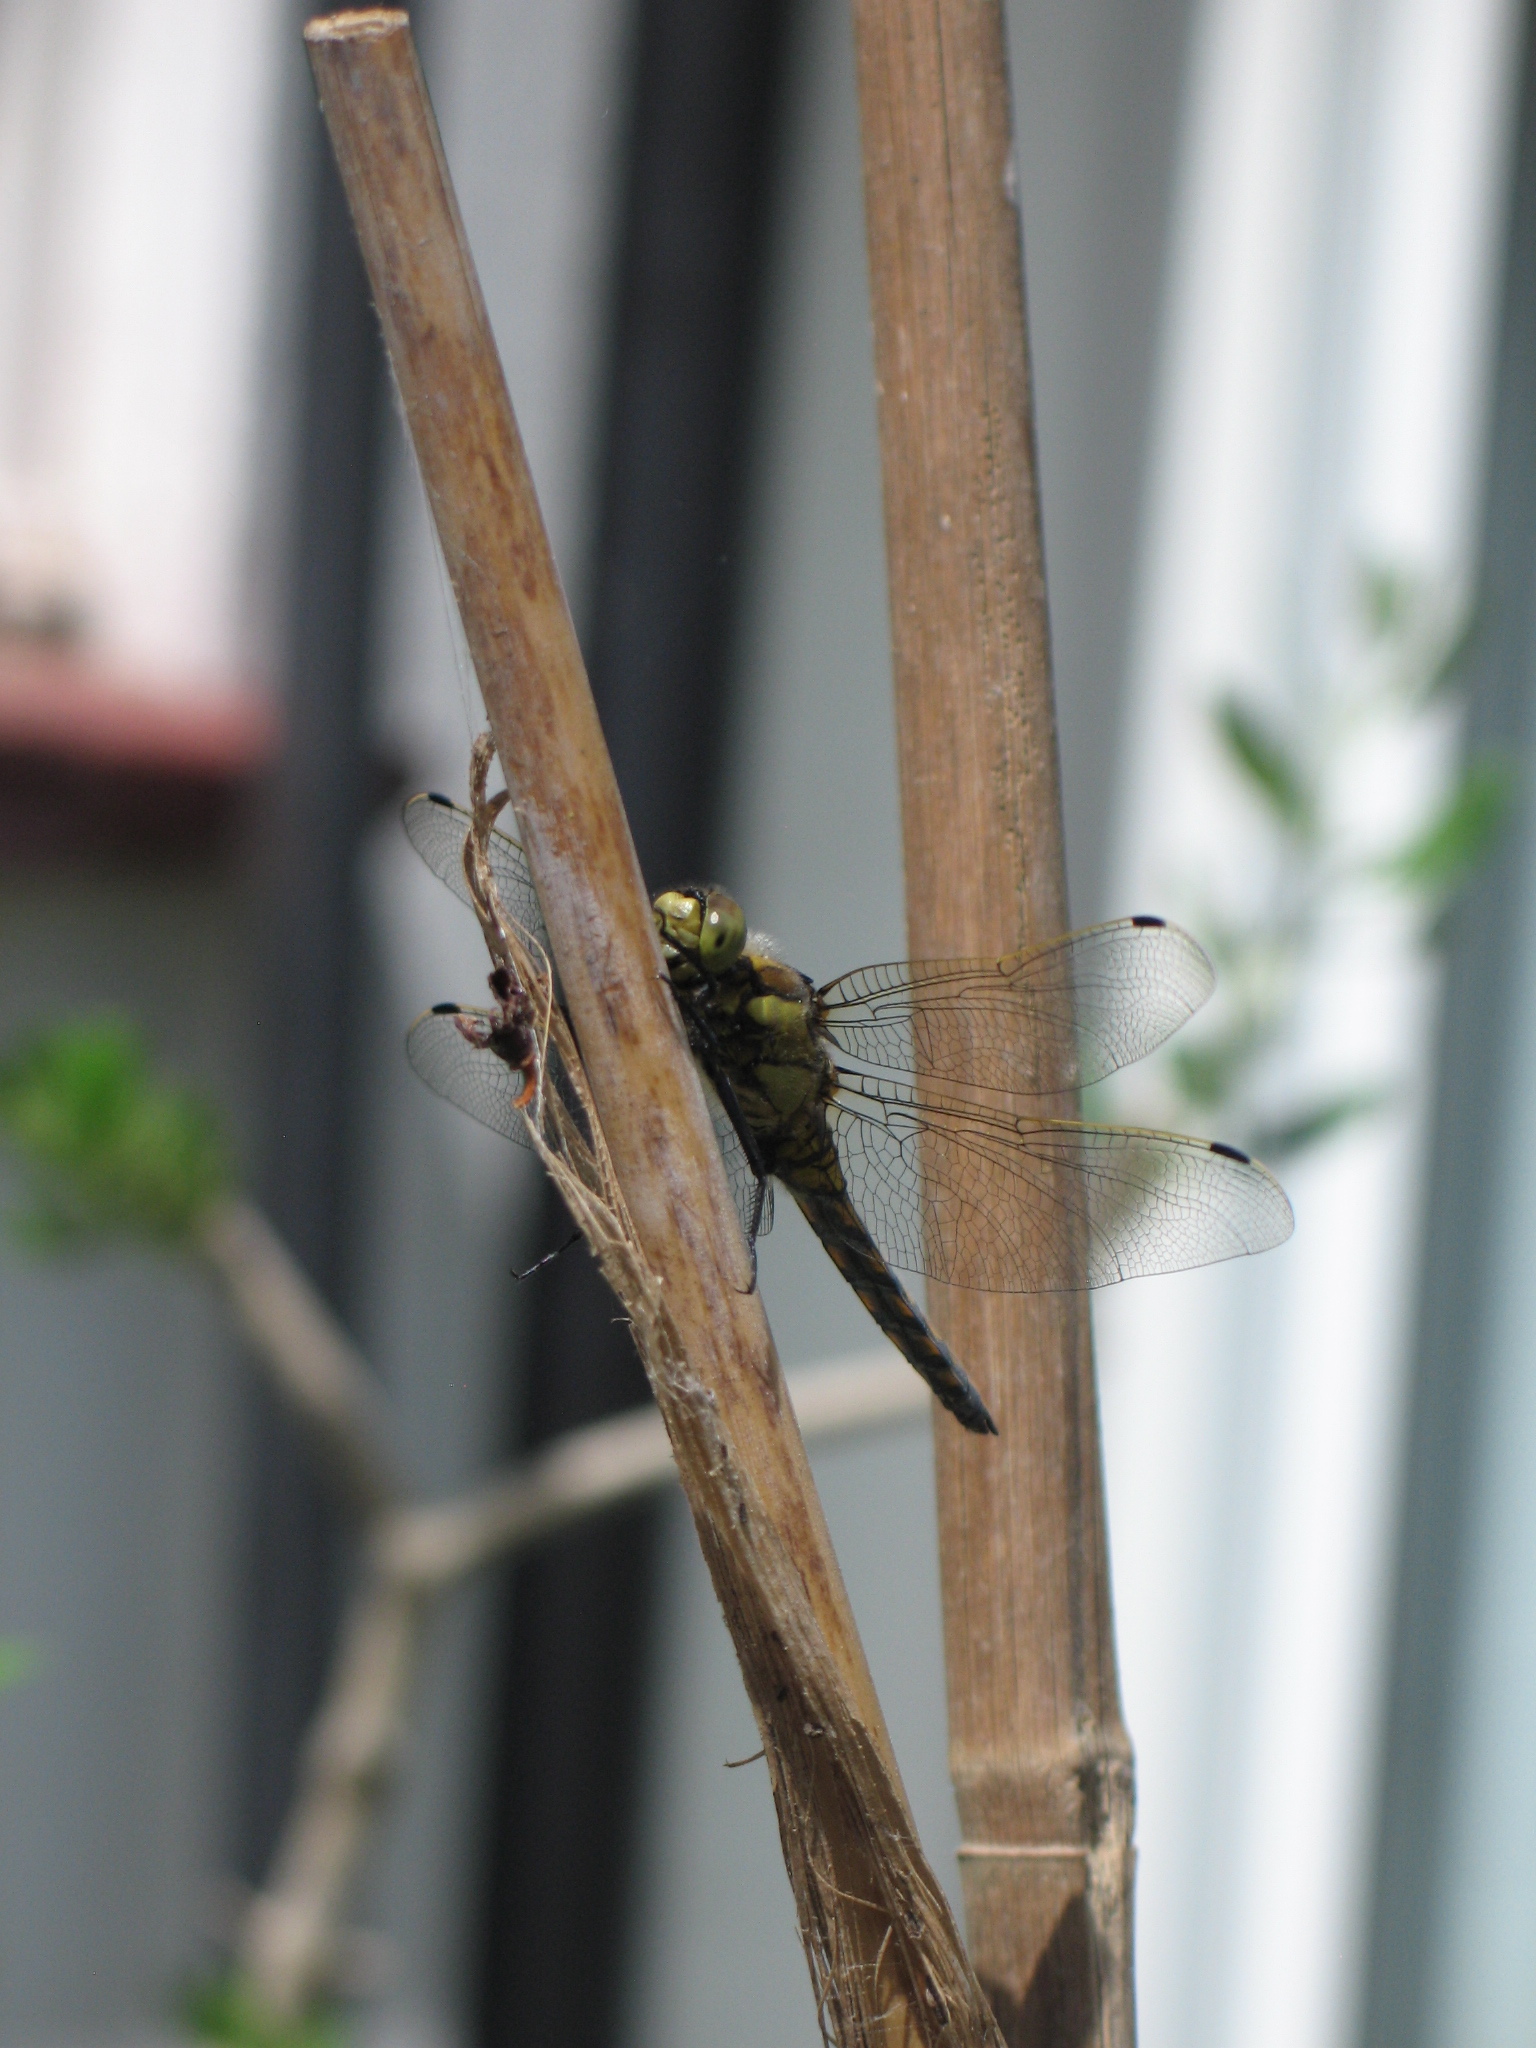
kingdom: Animalia
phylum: Arthropoda
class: Insecta
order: Odonata
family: Libellulidae
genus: Orthetrum
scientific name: Orthetrum cancellatum
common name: Black-tailed skimmer
